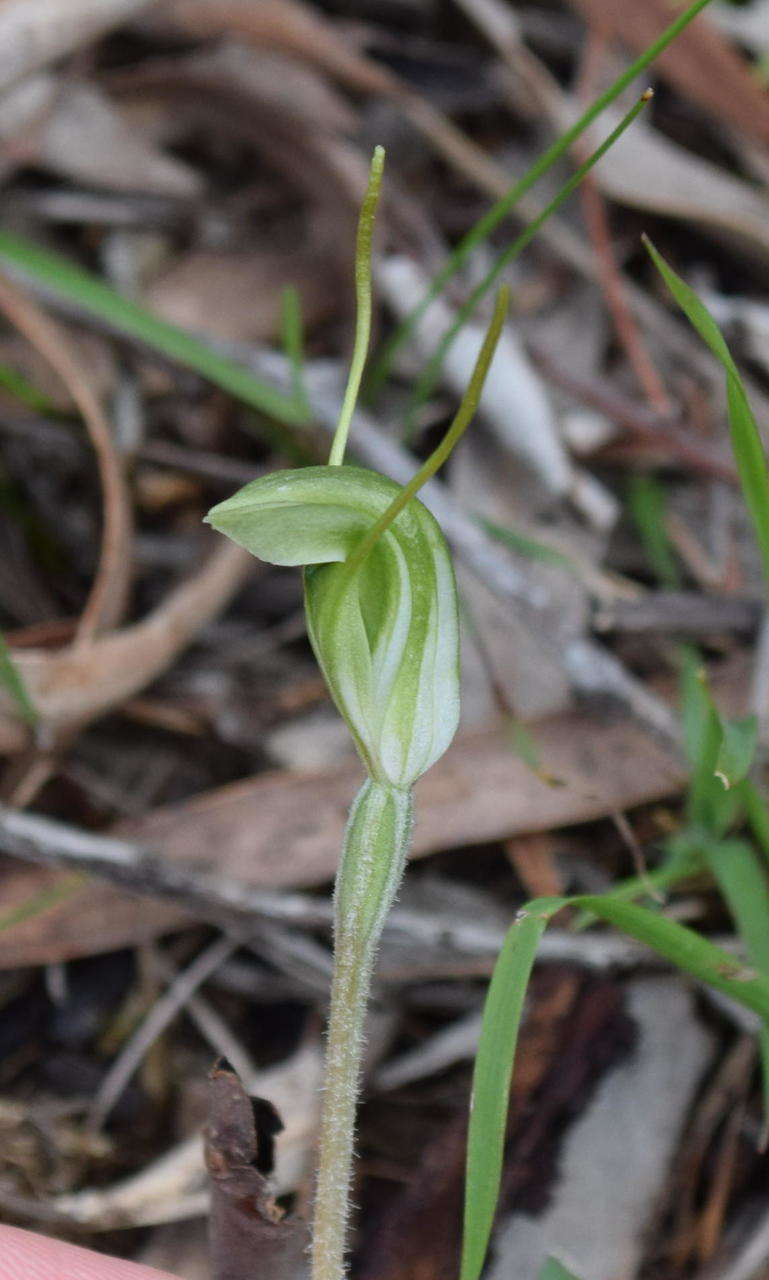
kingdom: Plantae
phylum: Tracheophyta
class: Liliopsida
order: Asparagales
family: Orchidaceae
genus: Pterostylis
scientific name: Pterostylis nana
